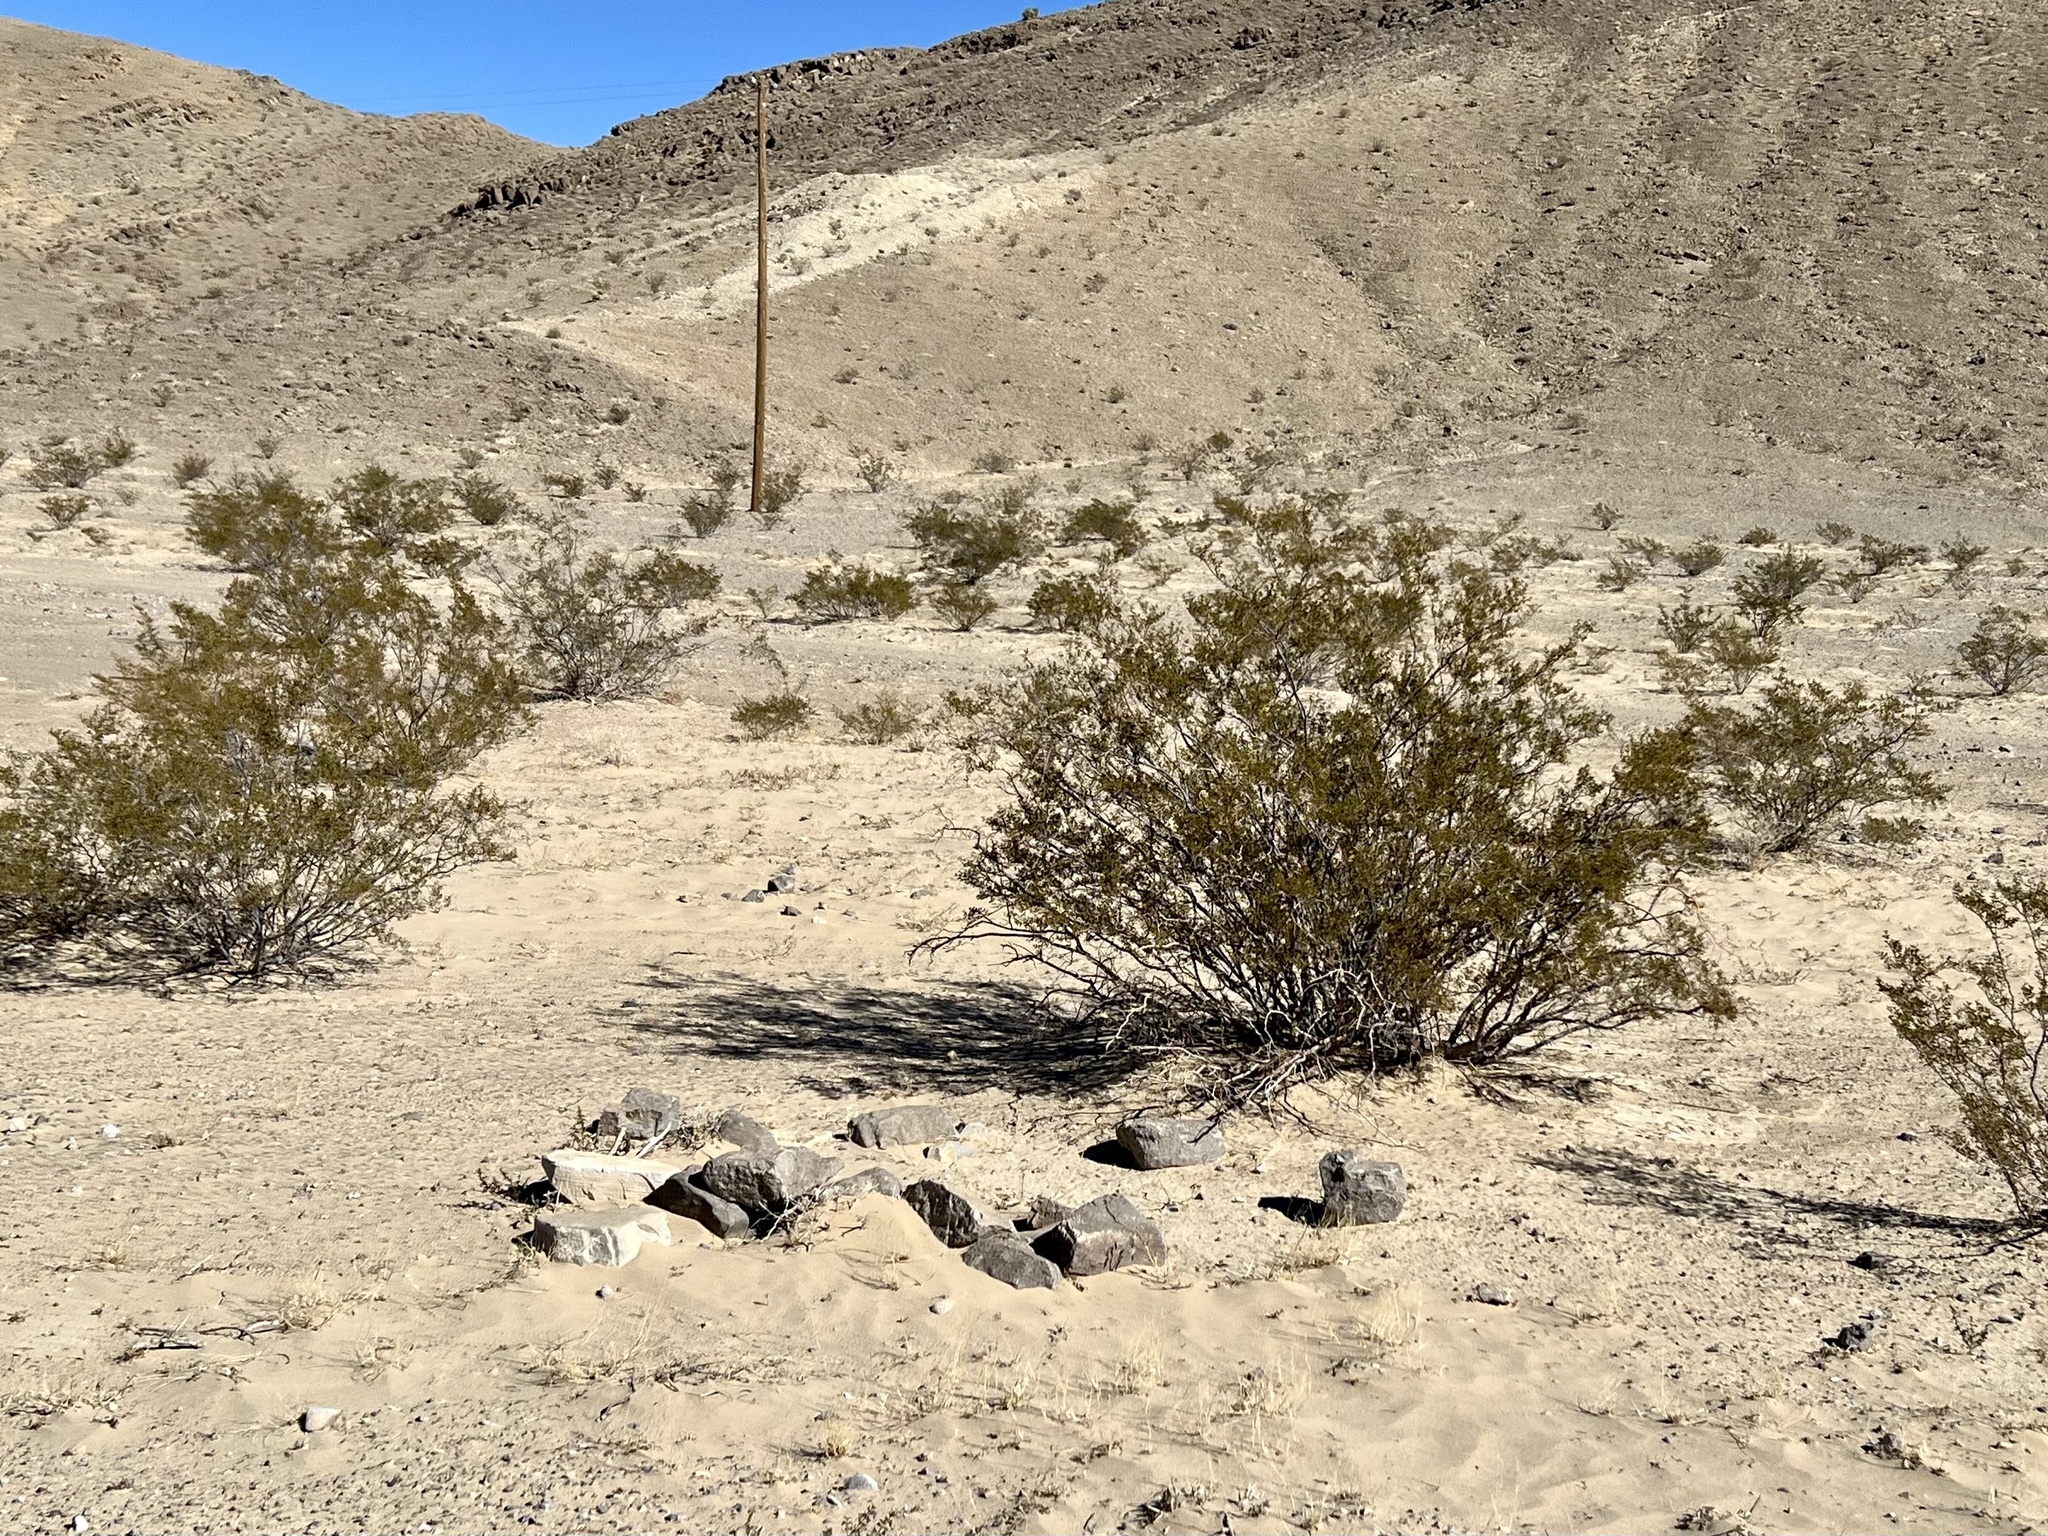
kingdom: Plantae
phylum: Tracheophyta
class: Magnoliopsida
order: Zygophyllales
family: Zygophyllaceae
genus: Larrea
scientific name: Larrea tridentata
